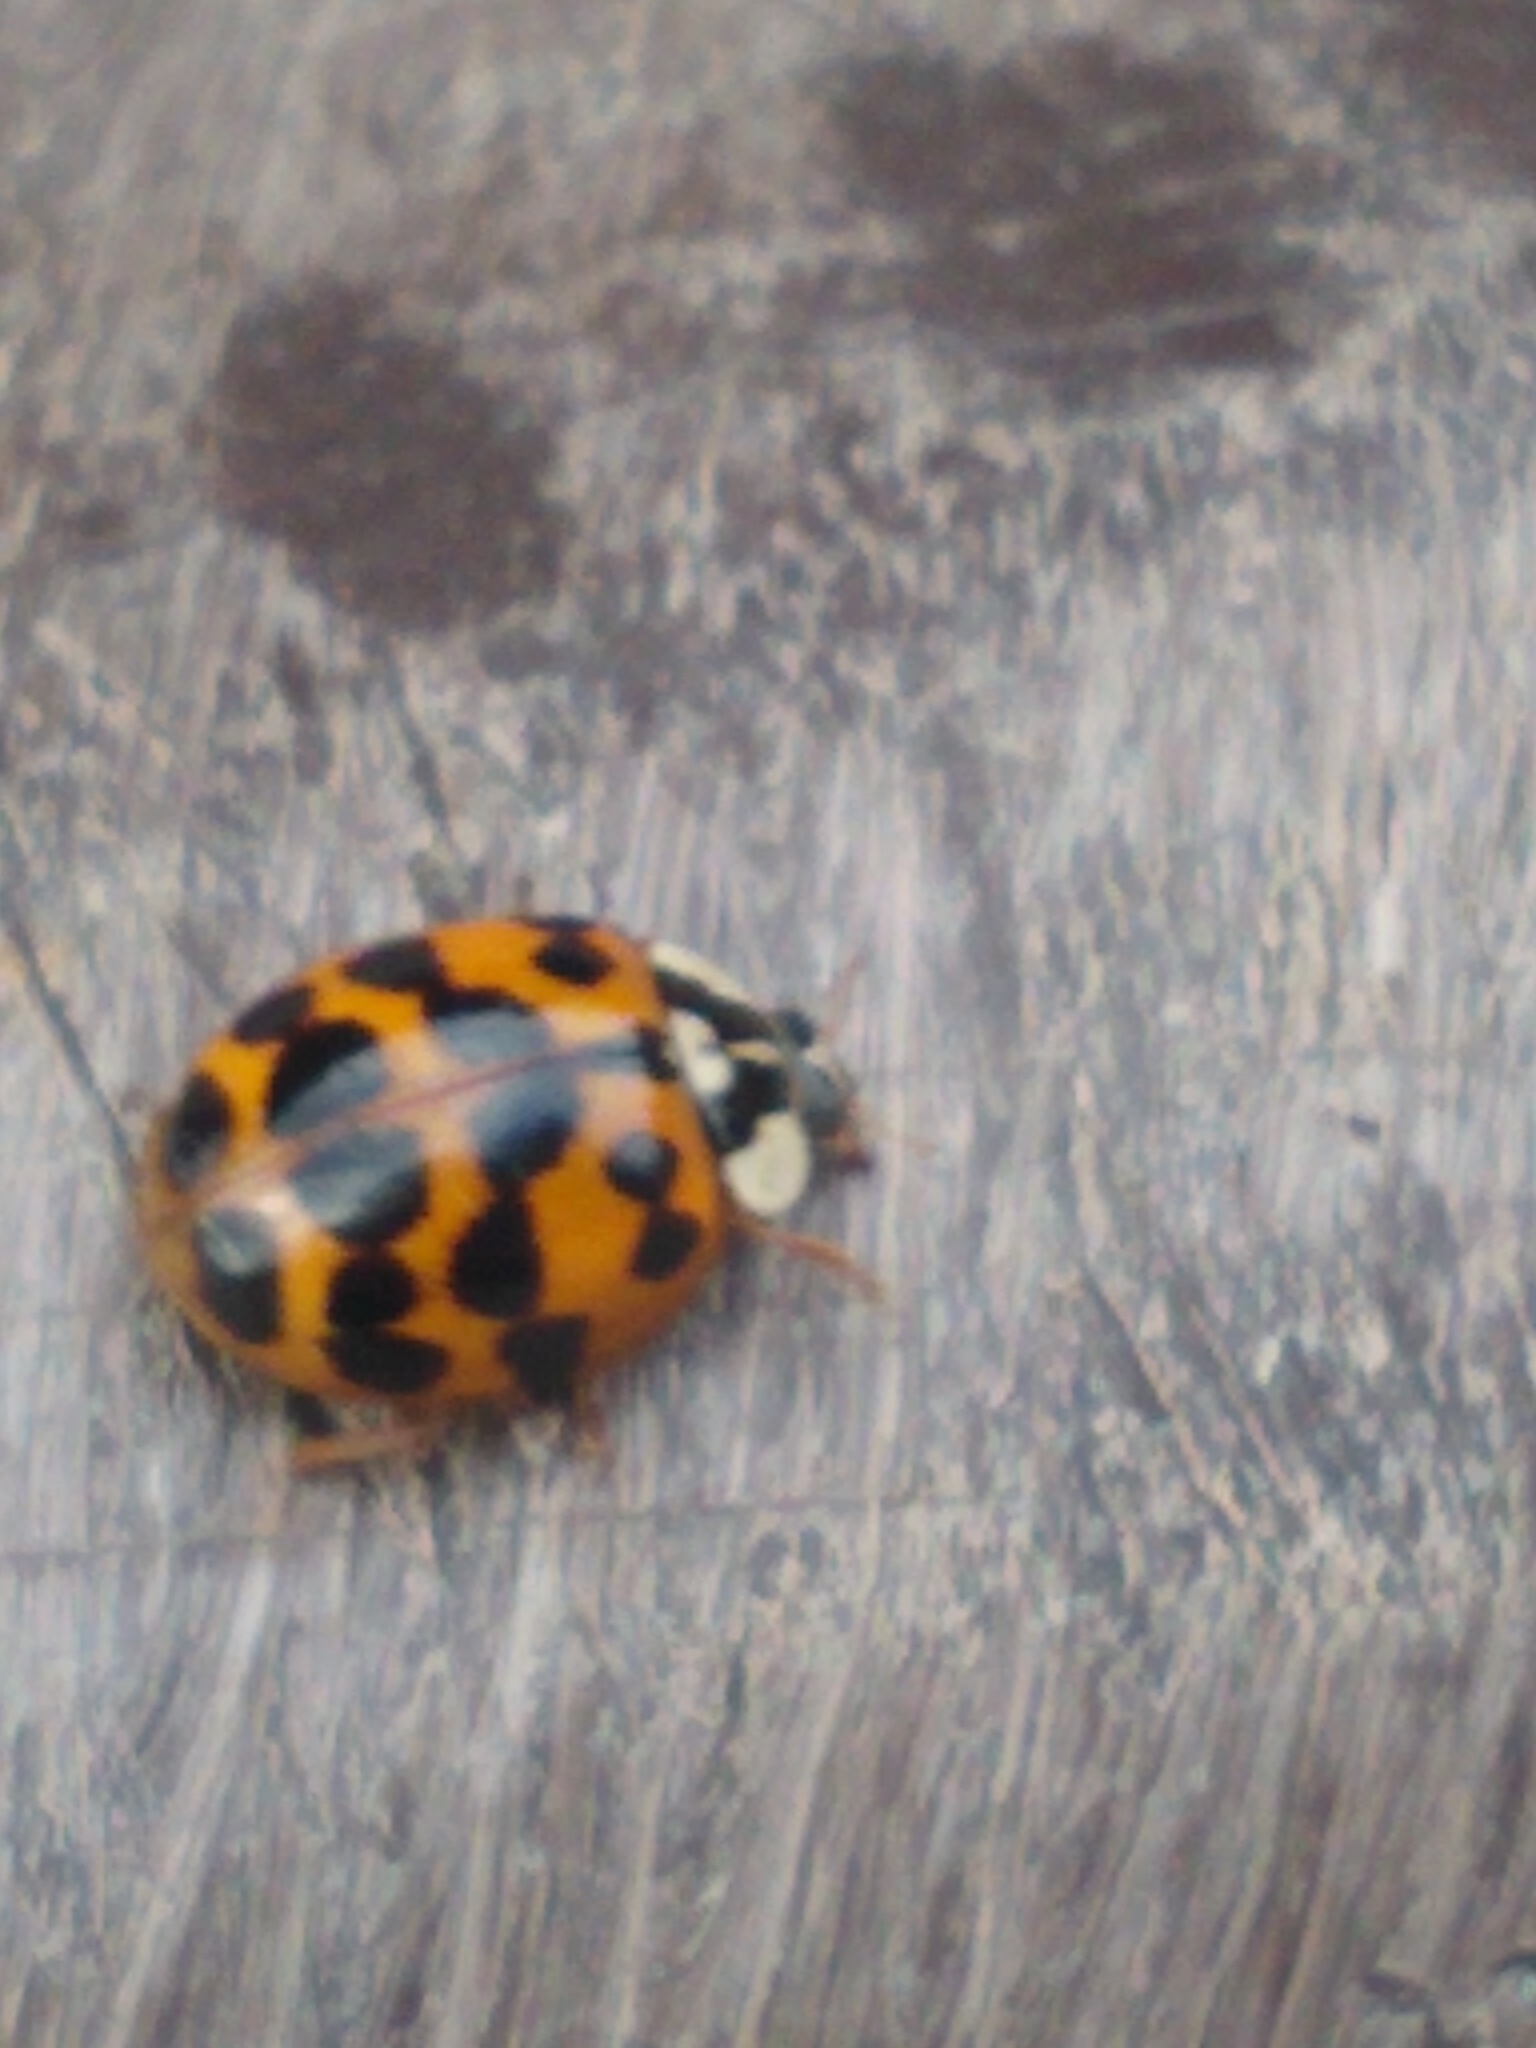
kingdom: Animalia
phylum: Arthropoda
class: Insecta
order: Coleoptera
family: Coccinellidae
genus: Harmonia
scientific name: Harmonia axyridis
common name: Harlequin ladybird
